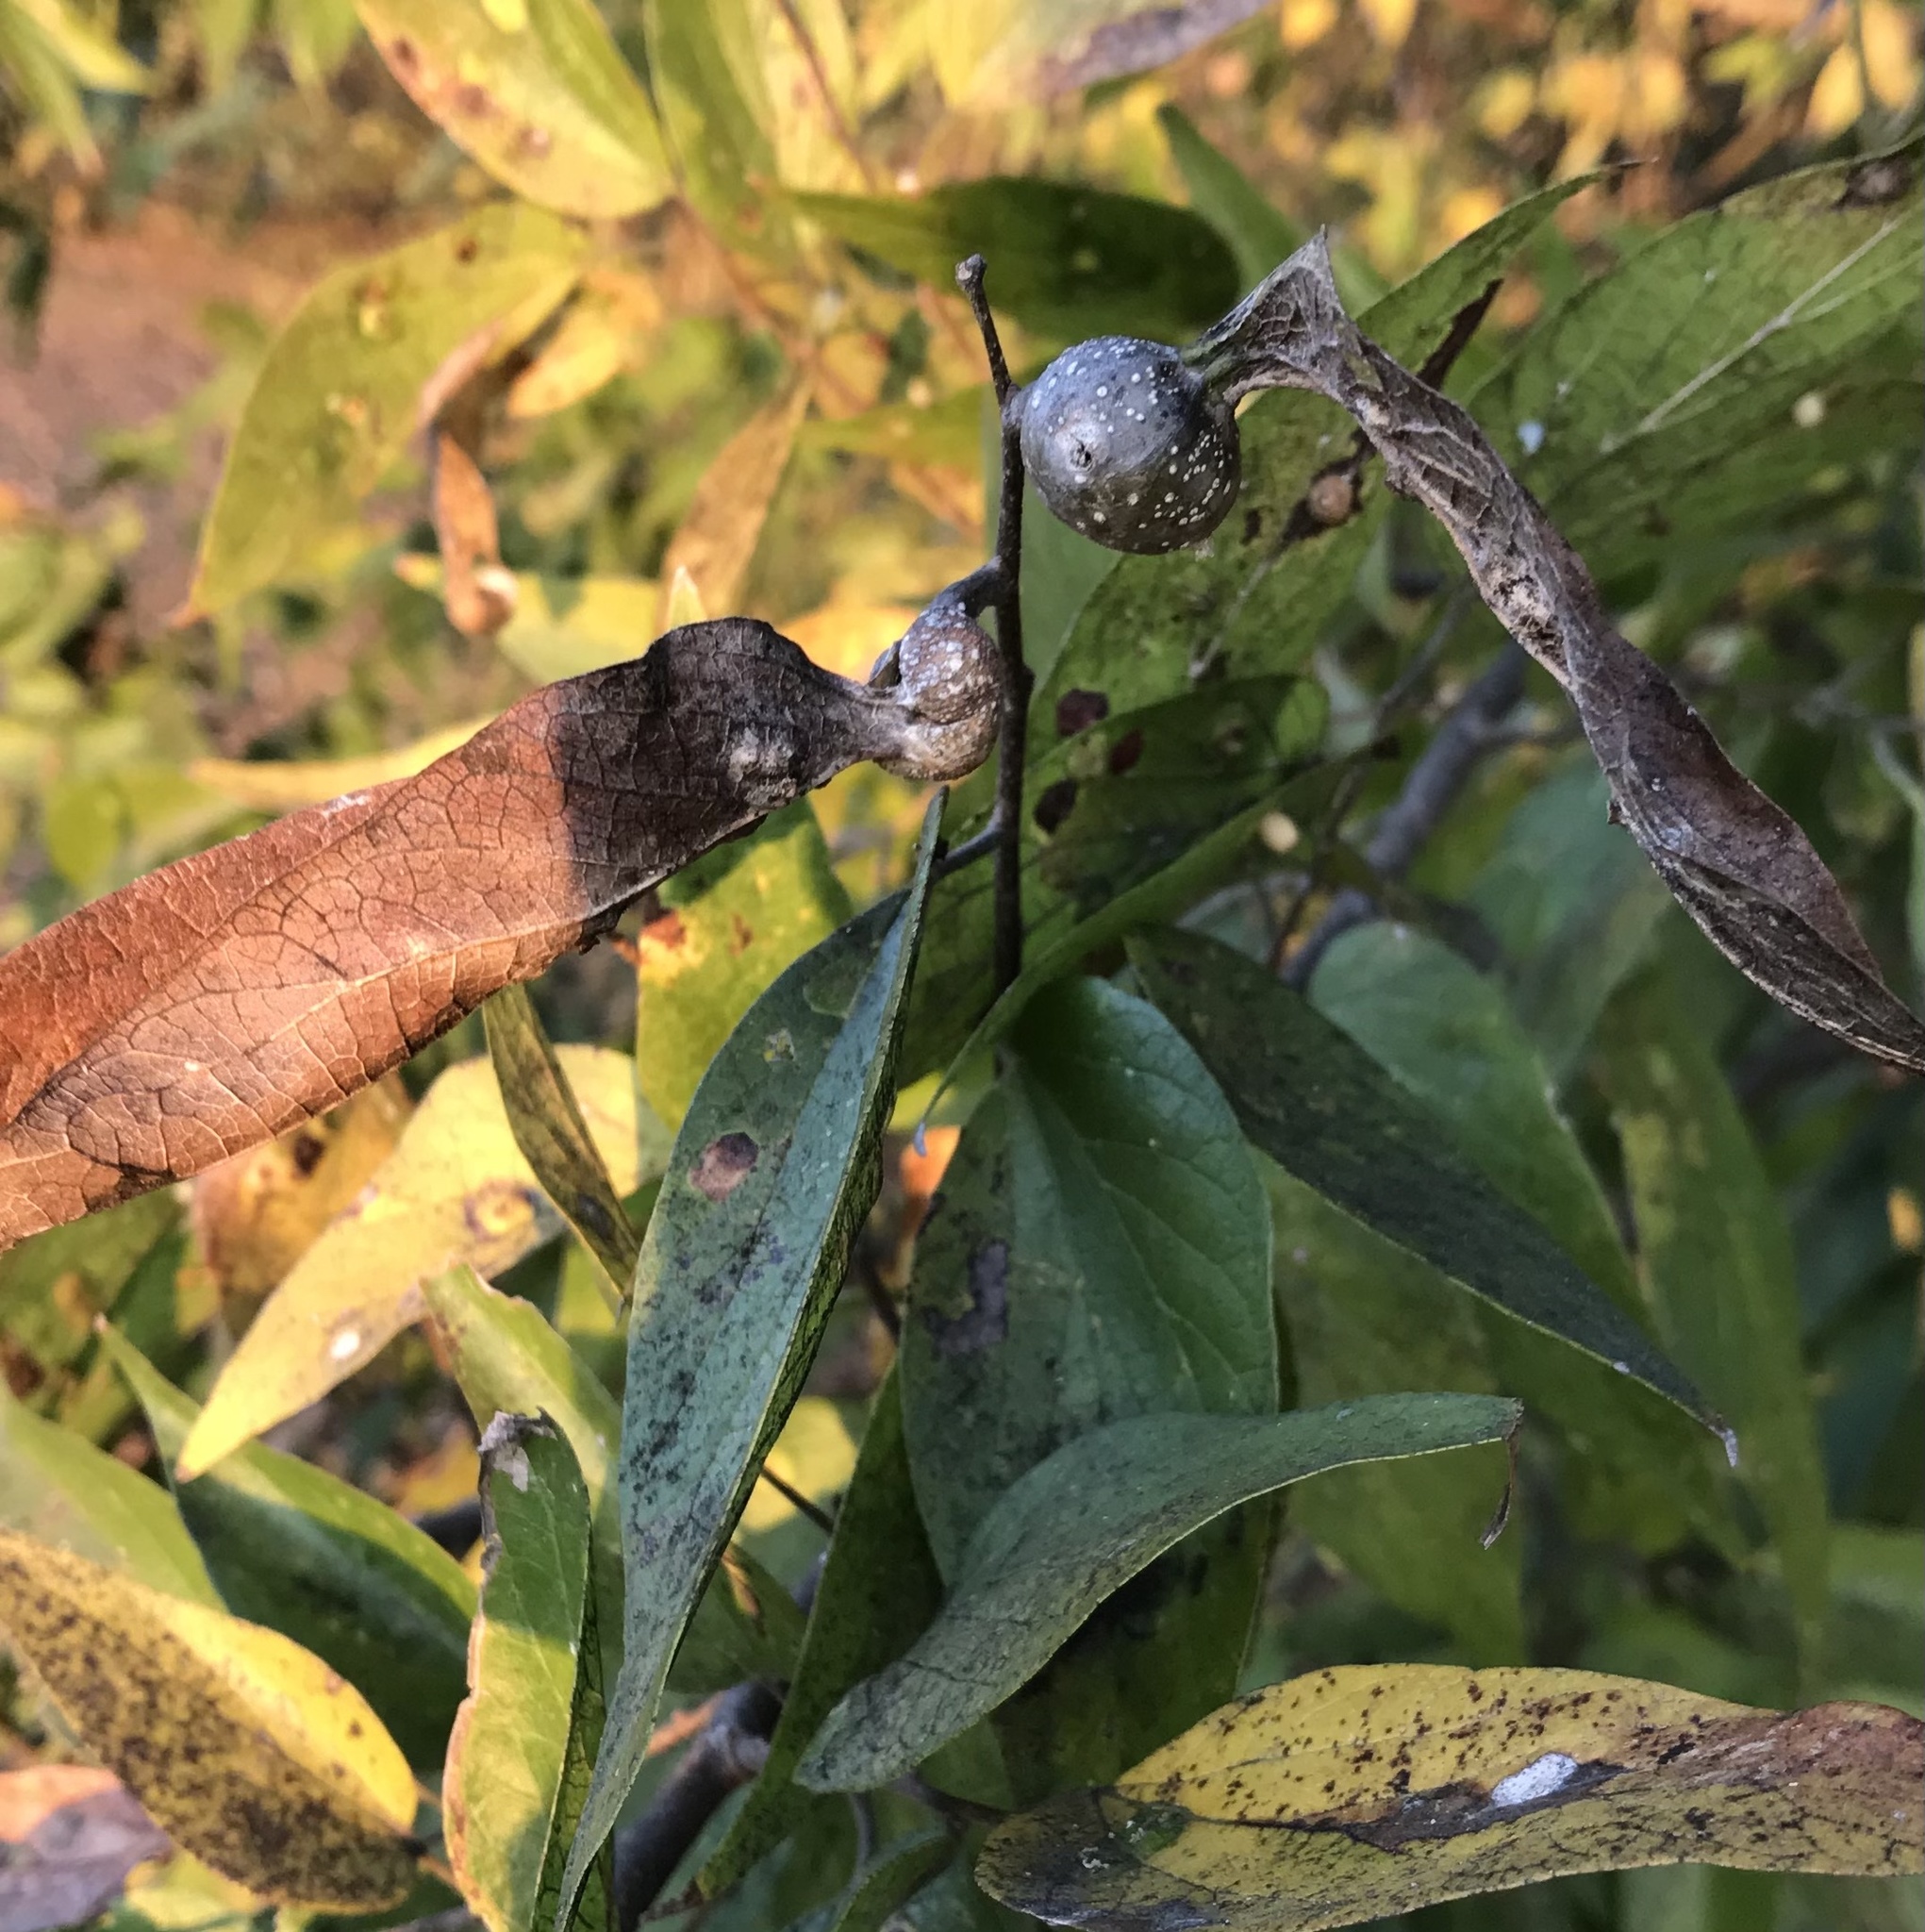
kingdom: Animalia
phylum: Arthropoda
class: Insecta
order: Hemiptera
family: Aphalaridae
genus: Pachypsylla
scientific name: Pachypsylla venusta
